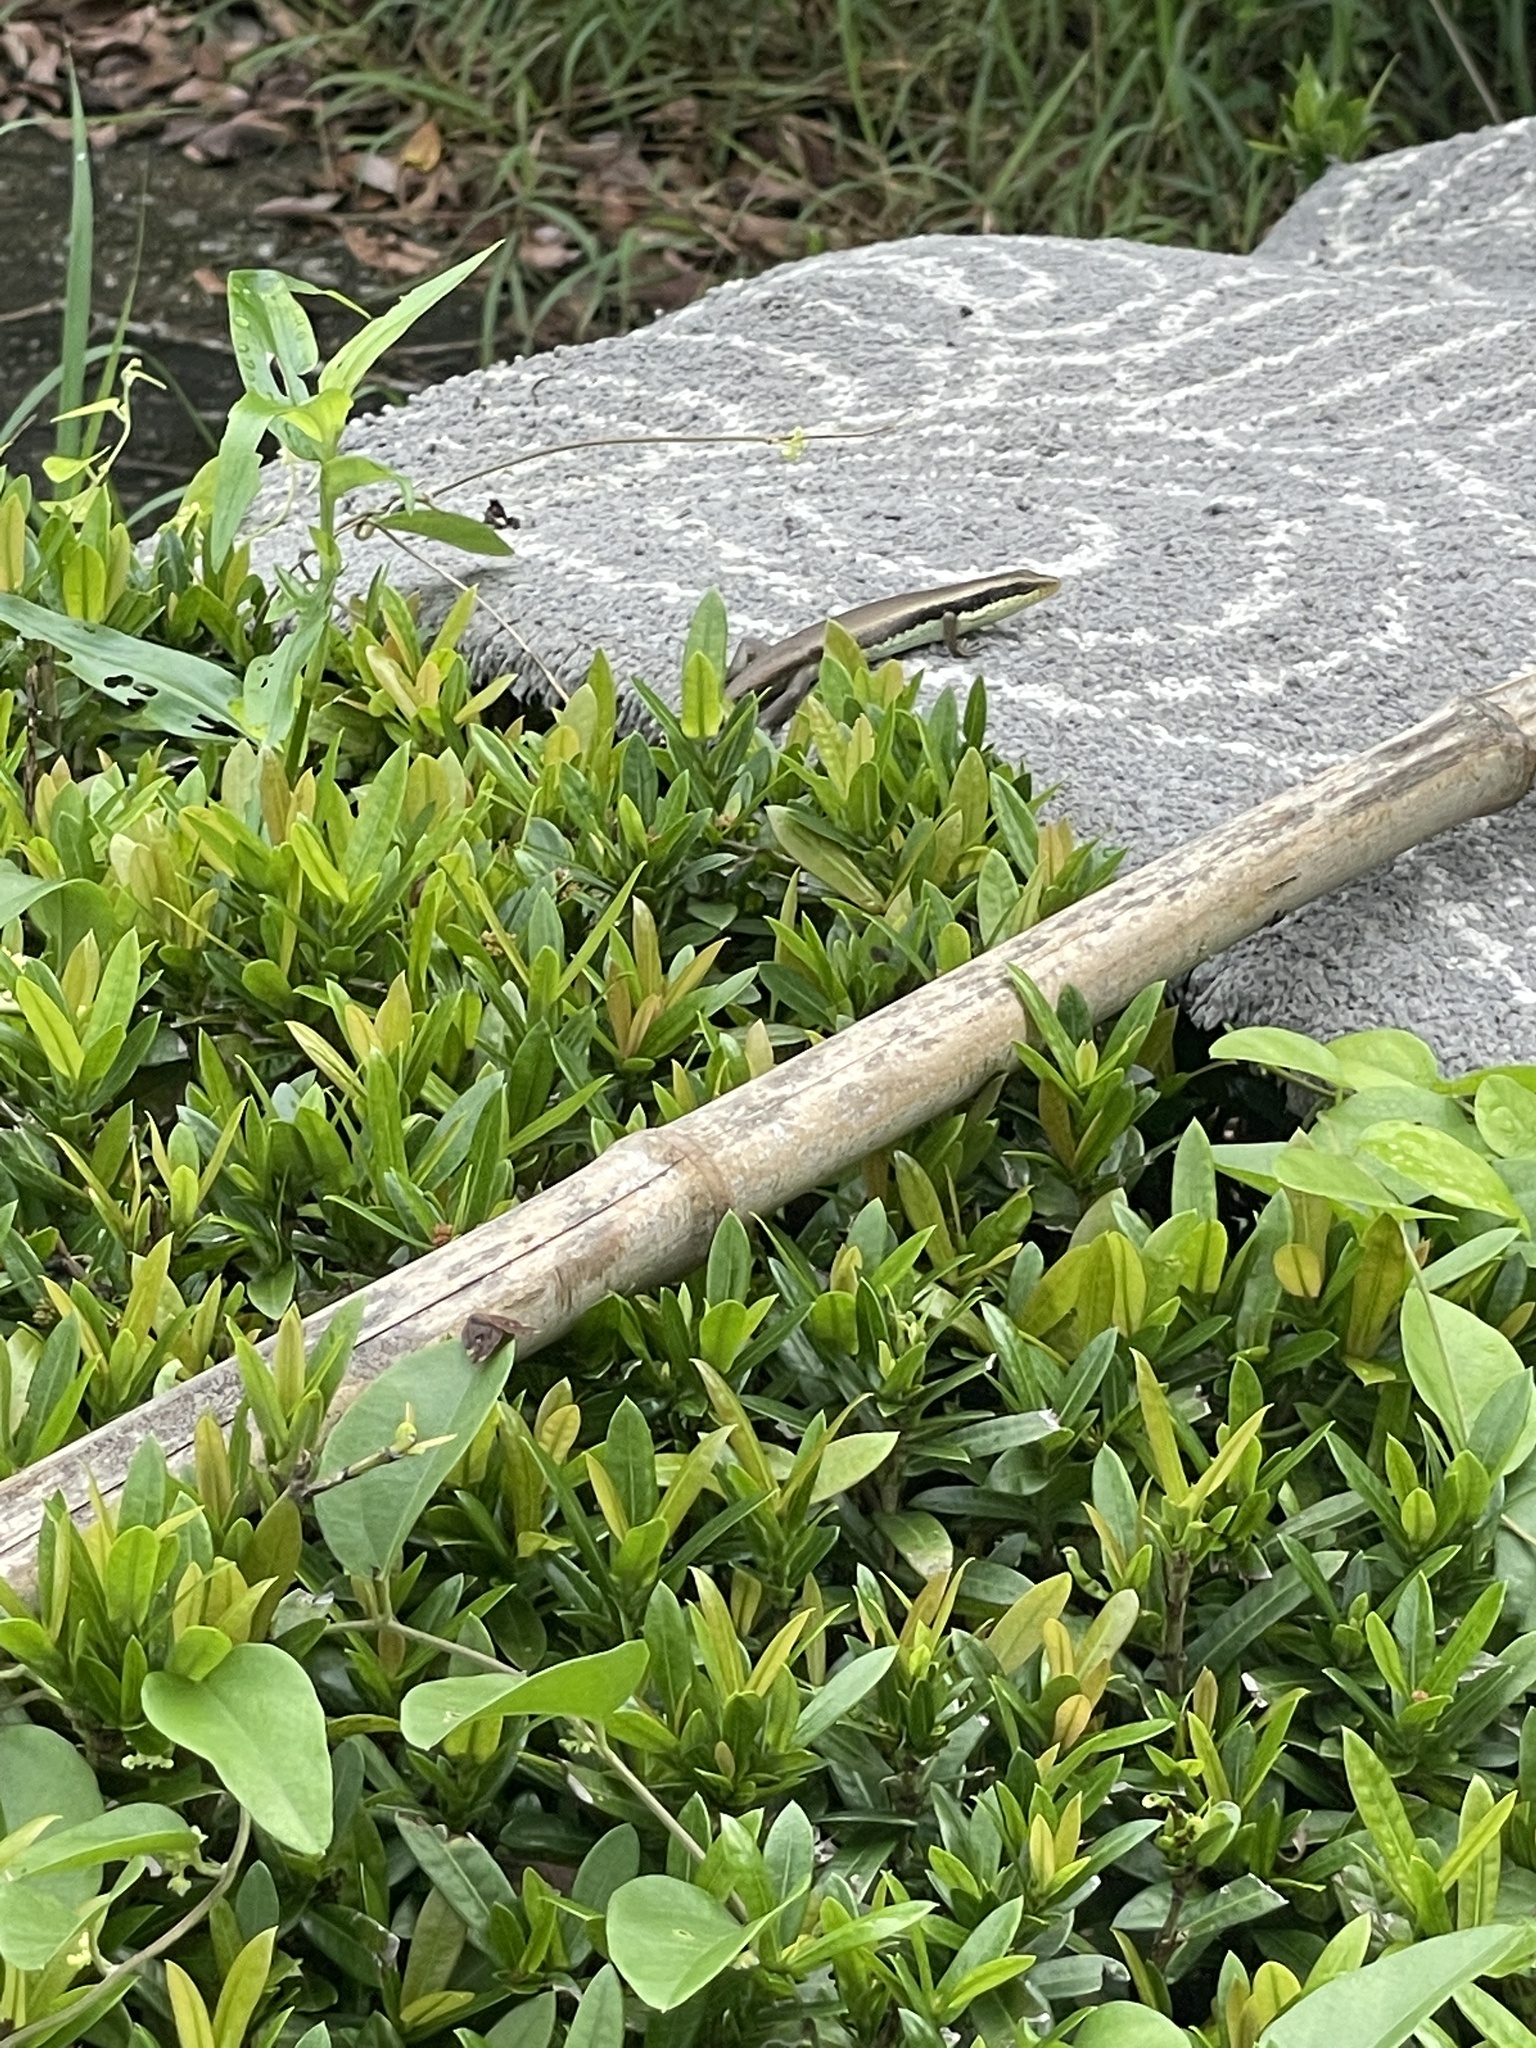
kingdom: Animalia
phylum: Chordata
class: Squamata
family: Scincidae
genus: Eutropis
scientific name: Eutropis longicaudata
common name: Long-tailed sun skink
